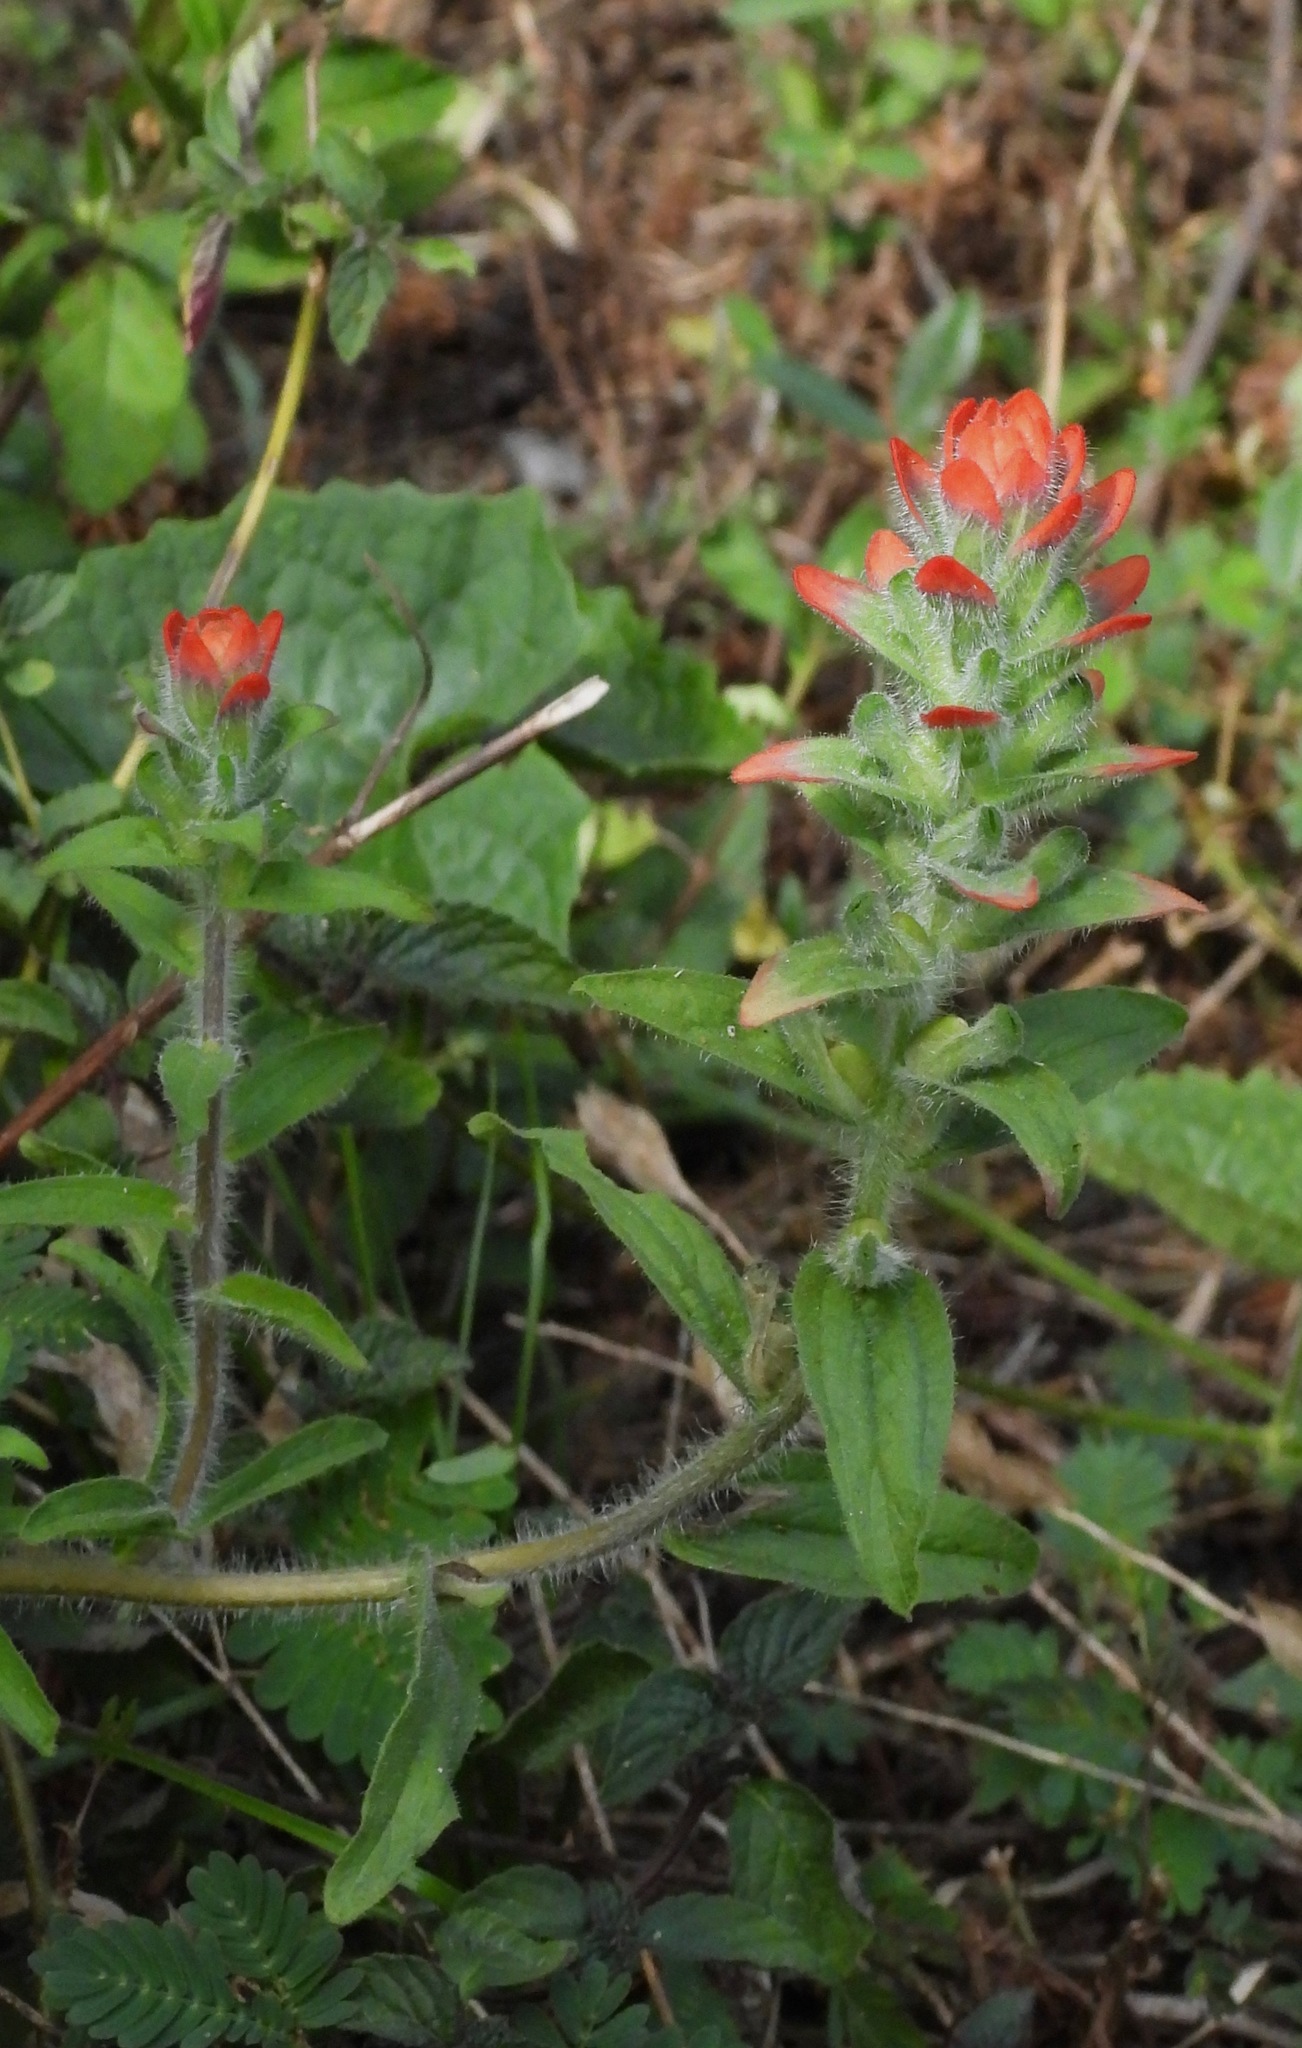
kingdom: Plantae
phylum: Tracheophyta
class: Magnoliopsida
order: Lamiales
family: Orobanchaceae
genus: Castilleja
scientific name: Castilleja arvensis
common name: Indian paintbrush
